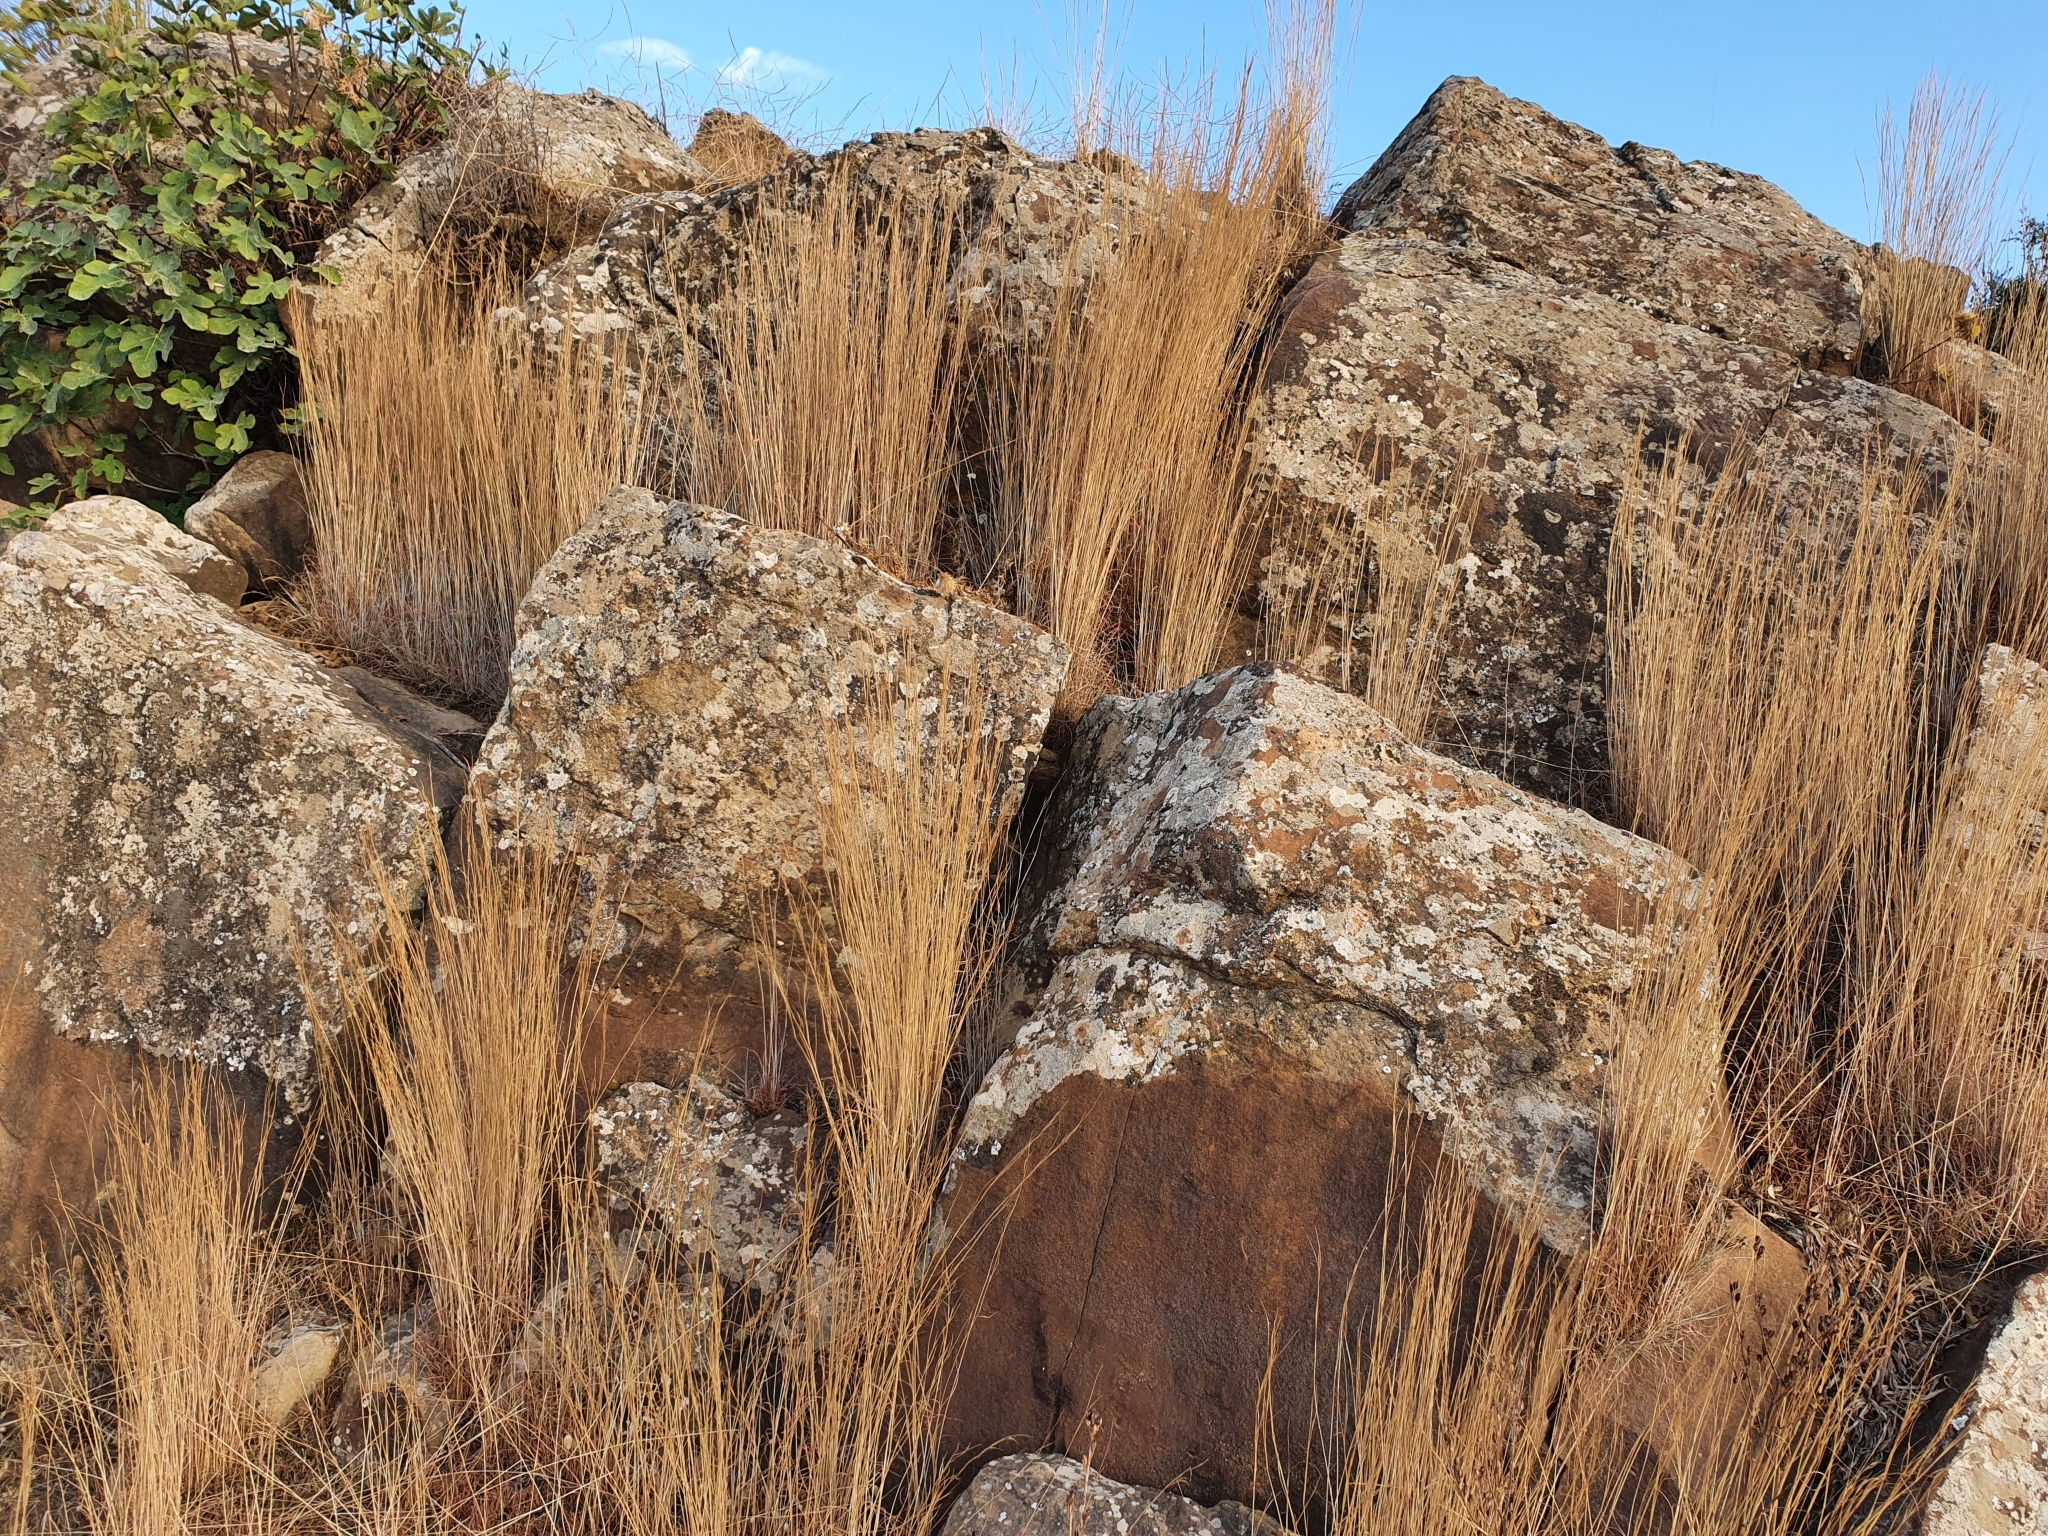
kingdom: Plantae
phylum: Tracheophyta
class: Liliopsida
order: Poales
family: Poaceae
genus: Lagurus
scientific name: Lagurus ovatus
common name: Hare's-tail
